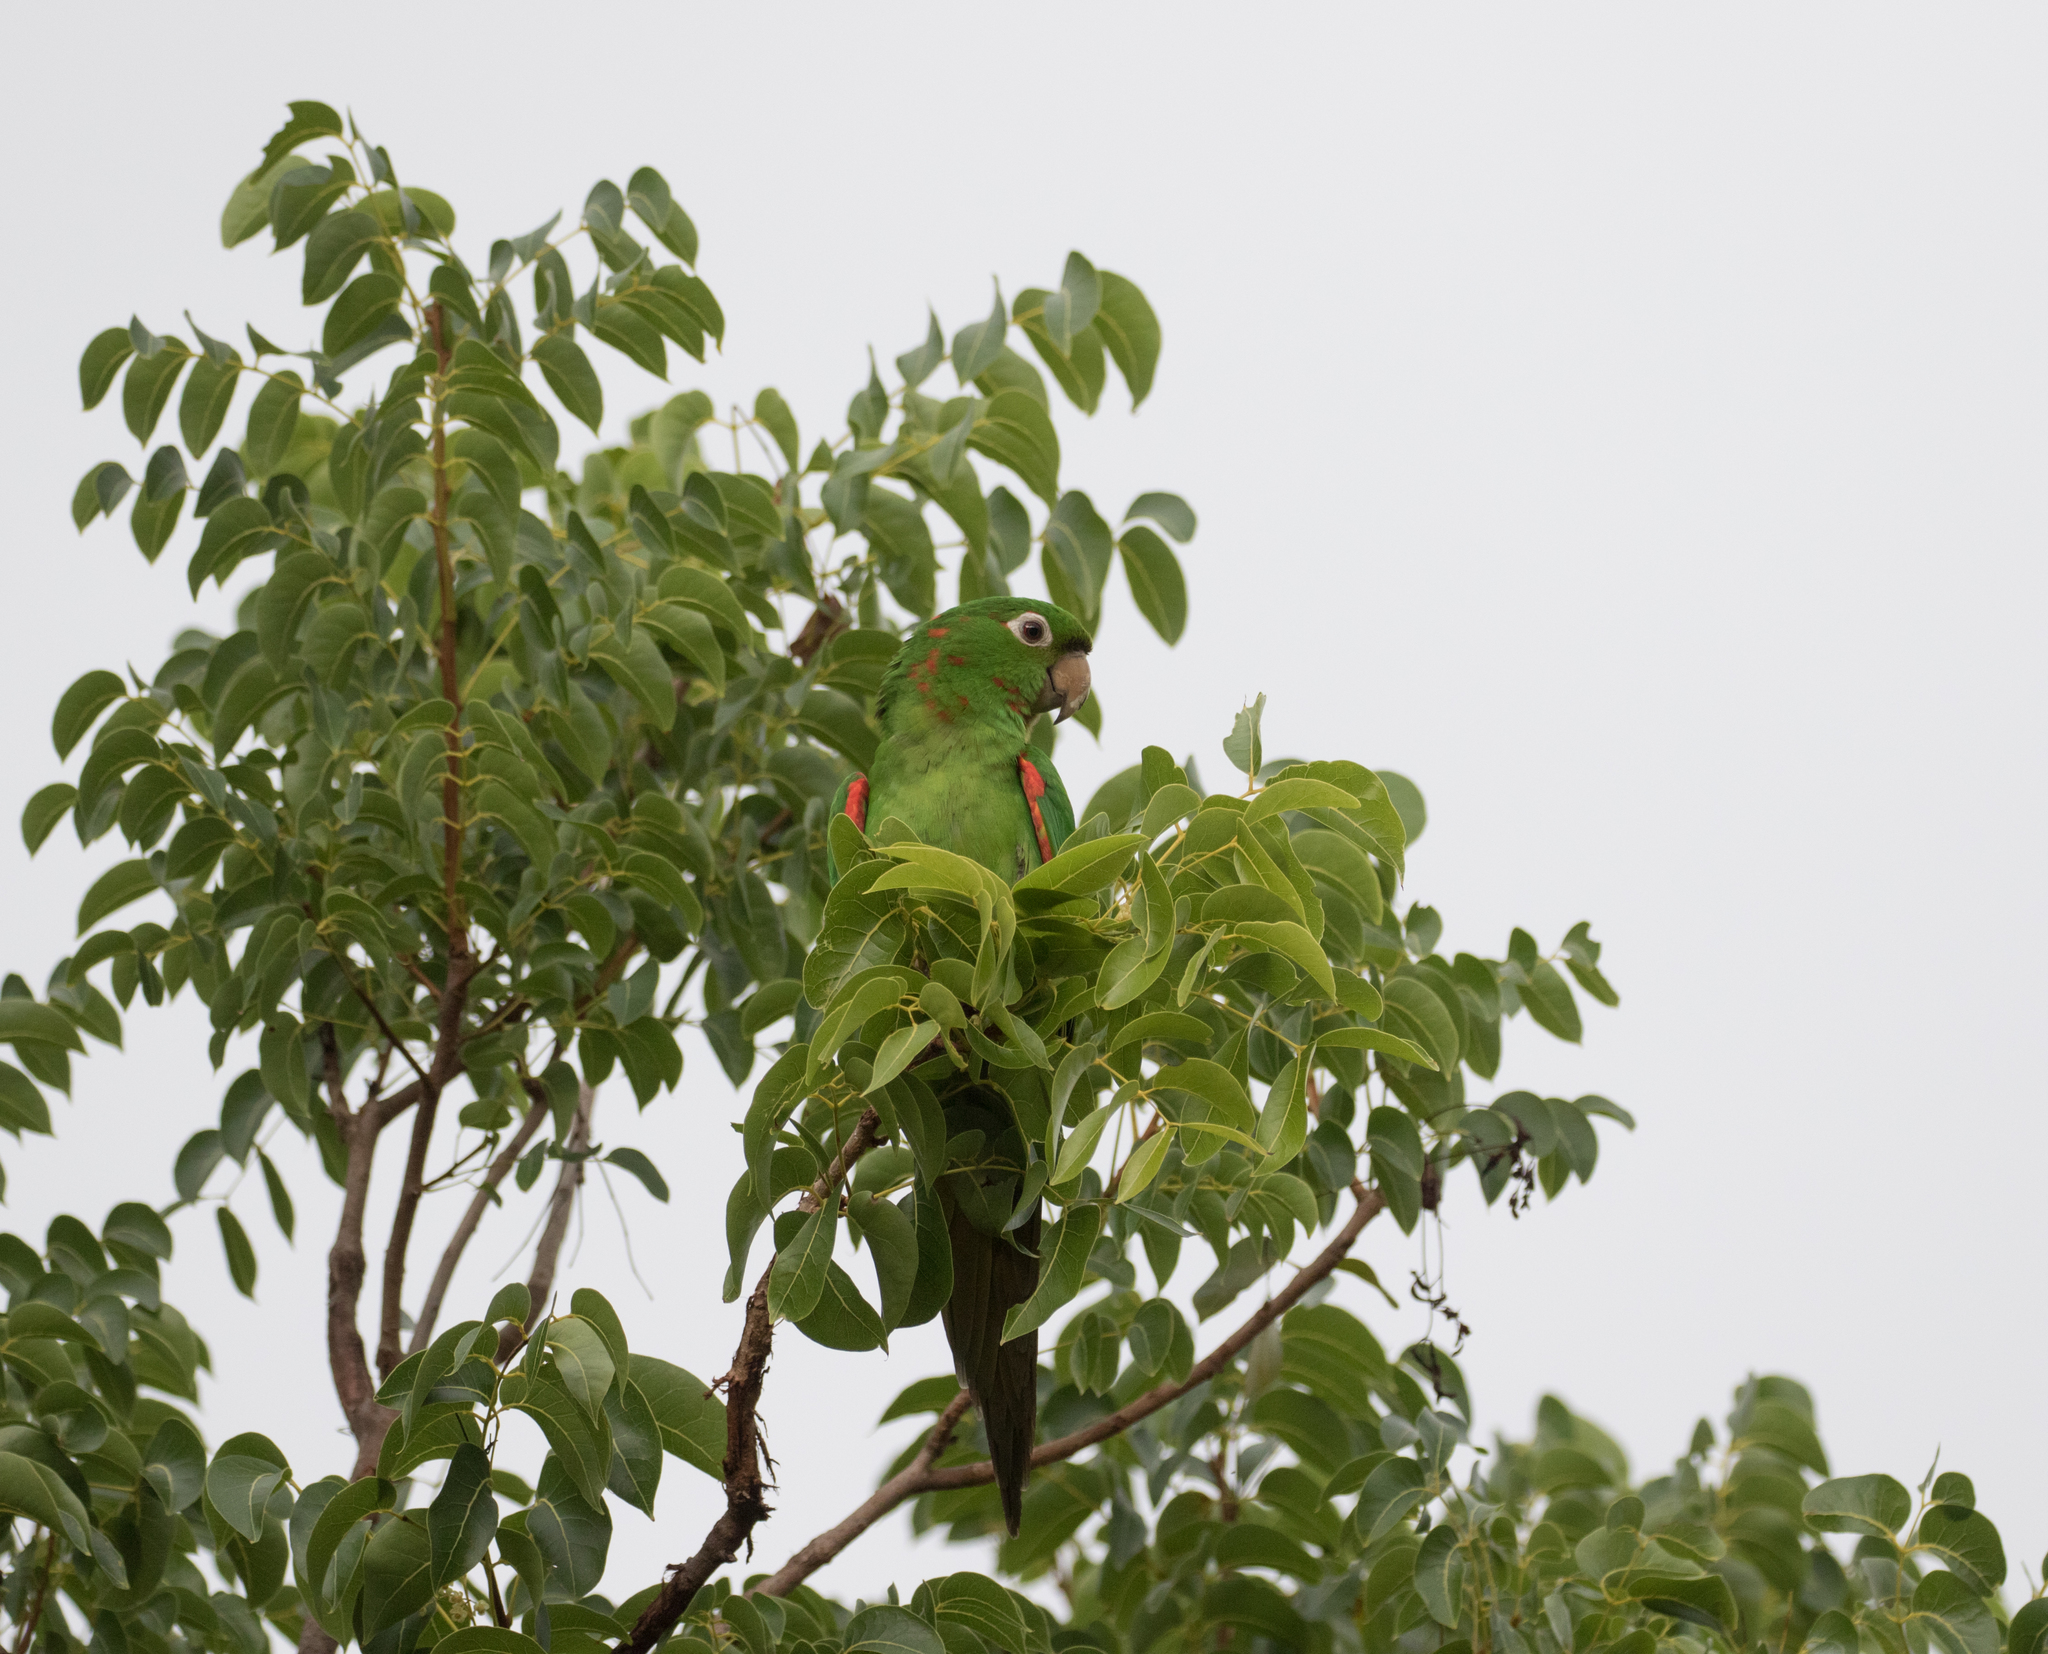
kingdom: Animalia
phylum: Chordata
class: Aves
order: Psittaciformes
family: Psittacidae
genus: Aratinga
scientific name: Aratinga erythrogenys
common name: Red-masked parakeet
